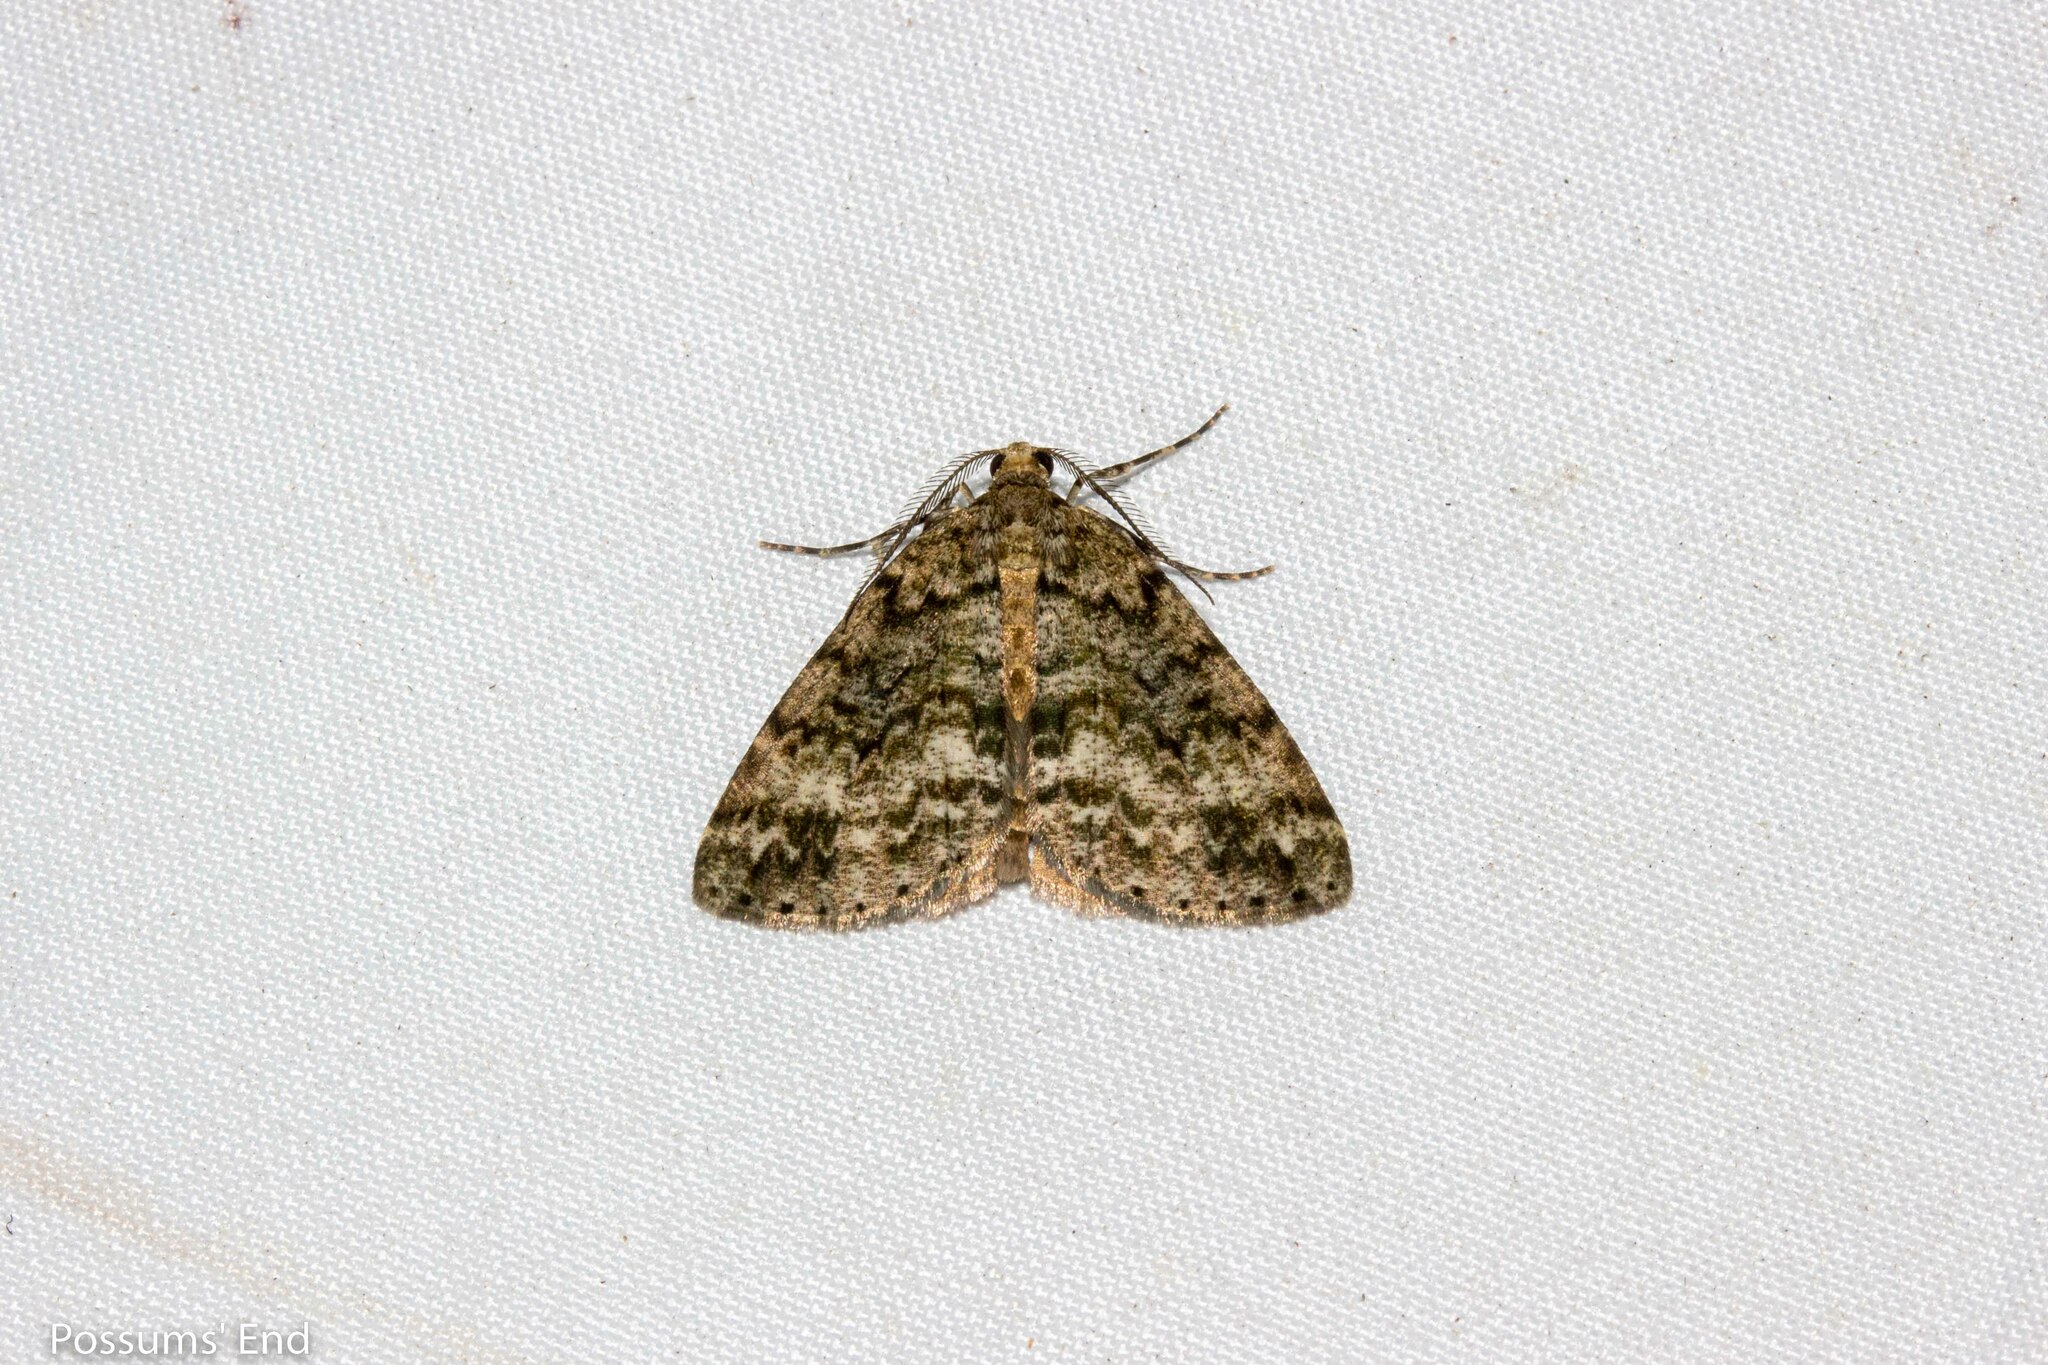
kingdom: Animalia
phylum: Arthropoda
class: Insecta
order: Lepidoptera
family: Geometridae
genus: Pseudocoremia
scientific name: Pseudocoremia lactiflua
